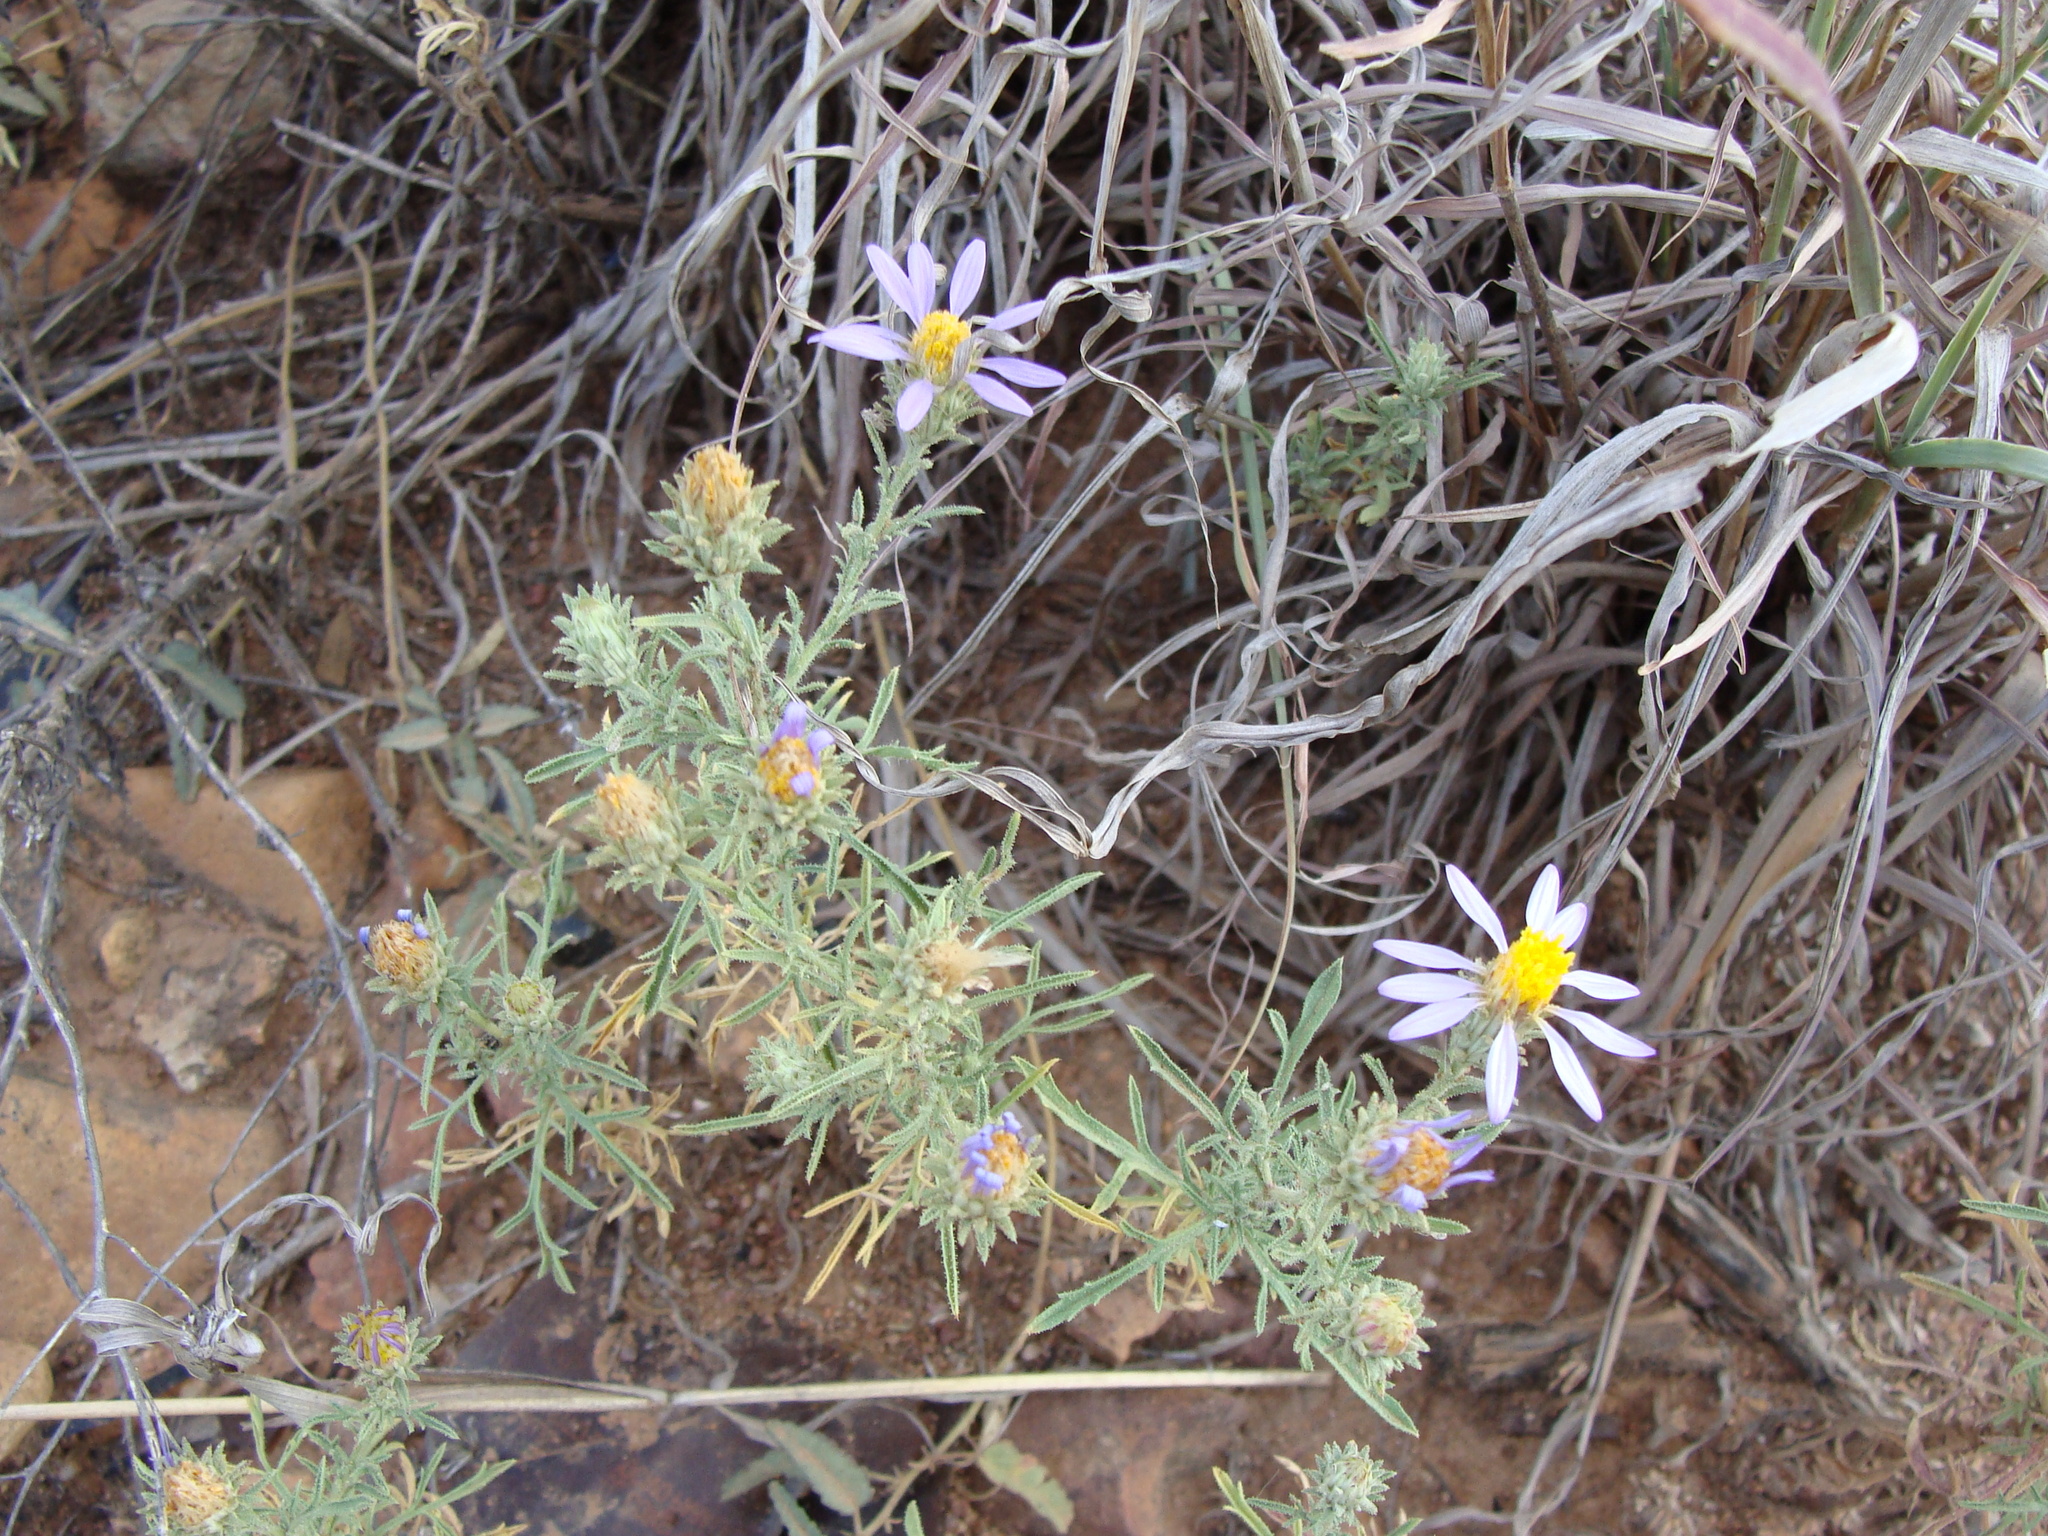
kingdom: Plantae
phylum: Tracheophyta
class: Magnoliopsida
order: Asterales
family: Asteraceae
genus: Machaeranthera
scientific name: Machaeranthera tagetina
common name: Mesa tansy-aster
